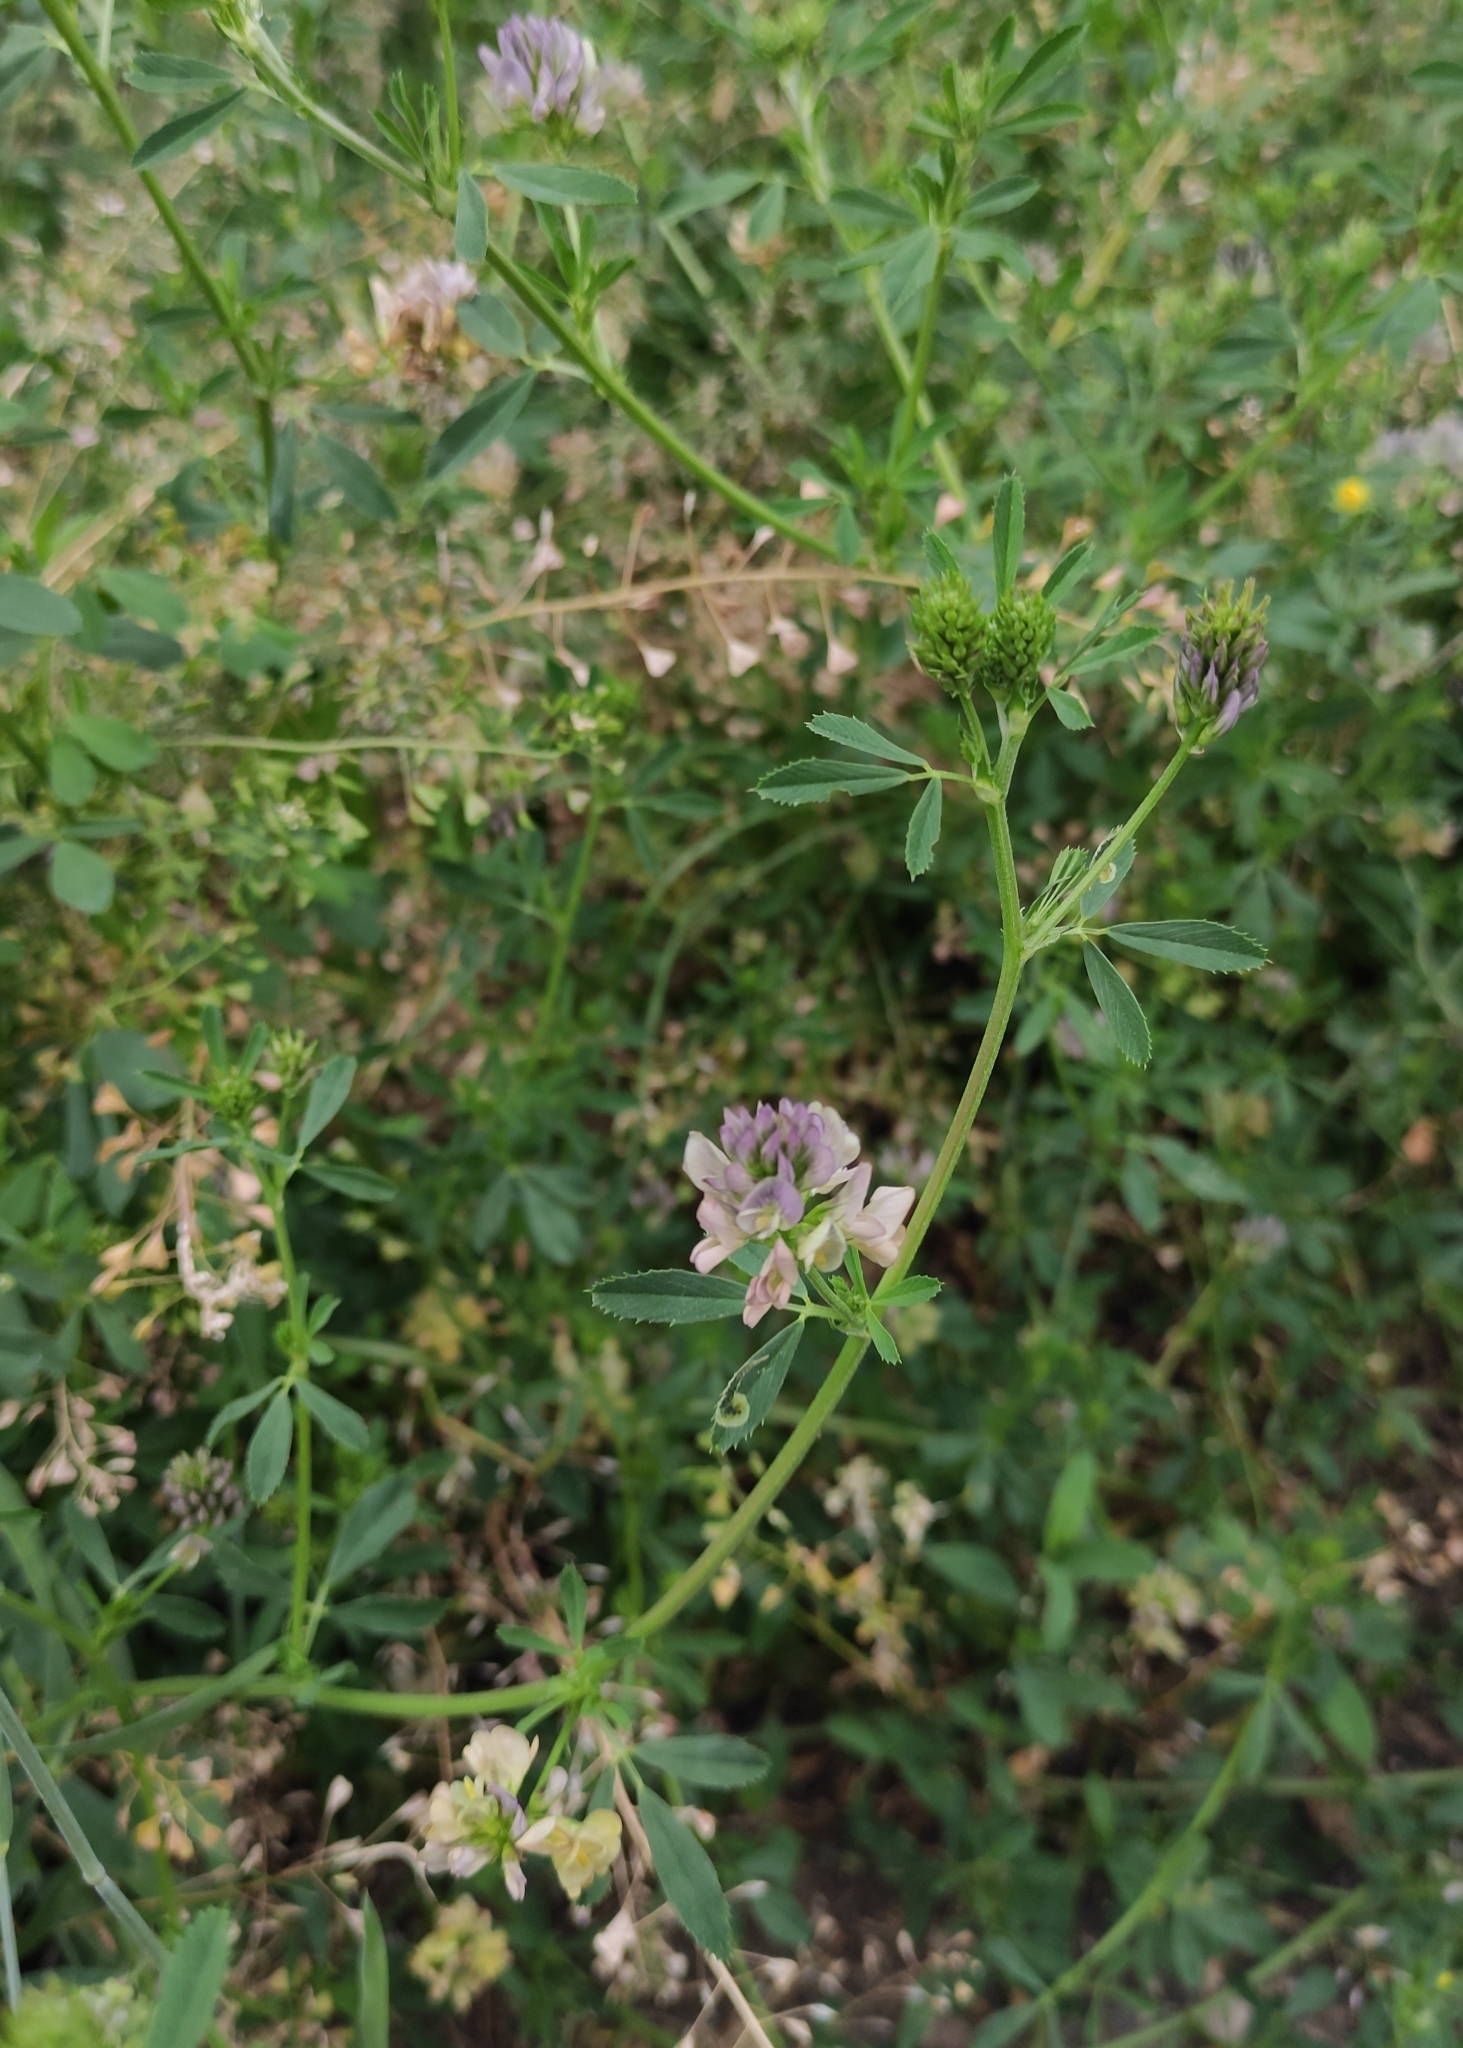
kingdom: Plantae
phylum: Tracheophyta
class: Magnoliopsida
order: Fabales
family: Fabaceae
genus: Medicago
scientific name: Medicago varia
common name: Sand lucerne
